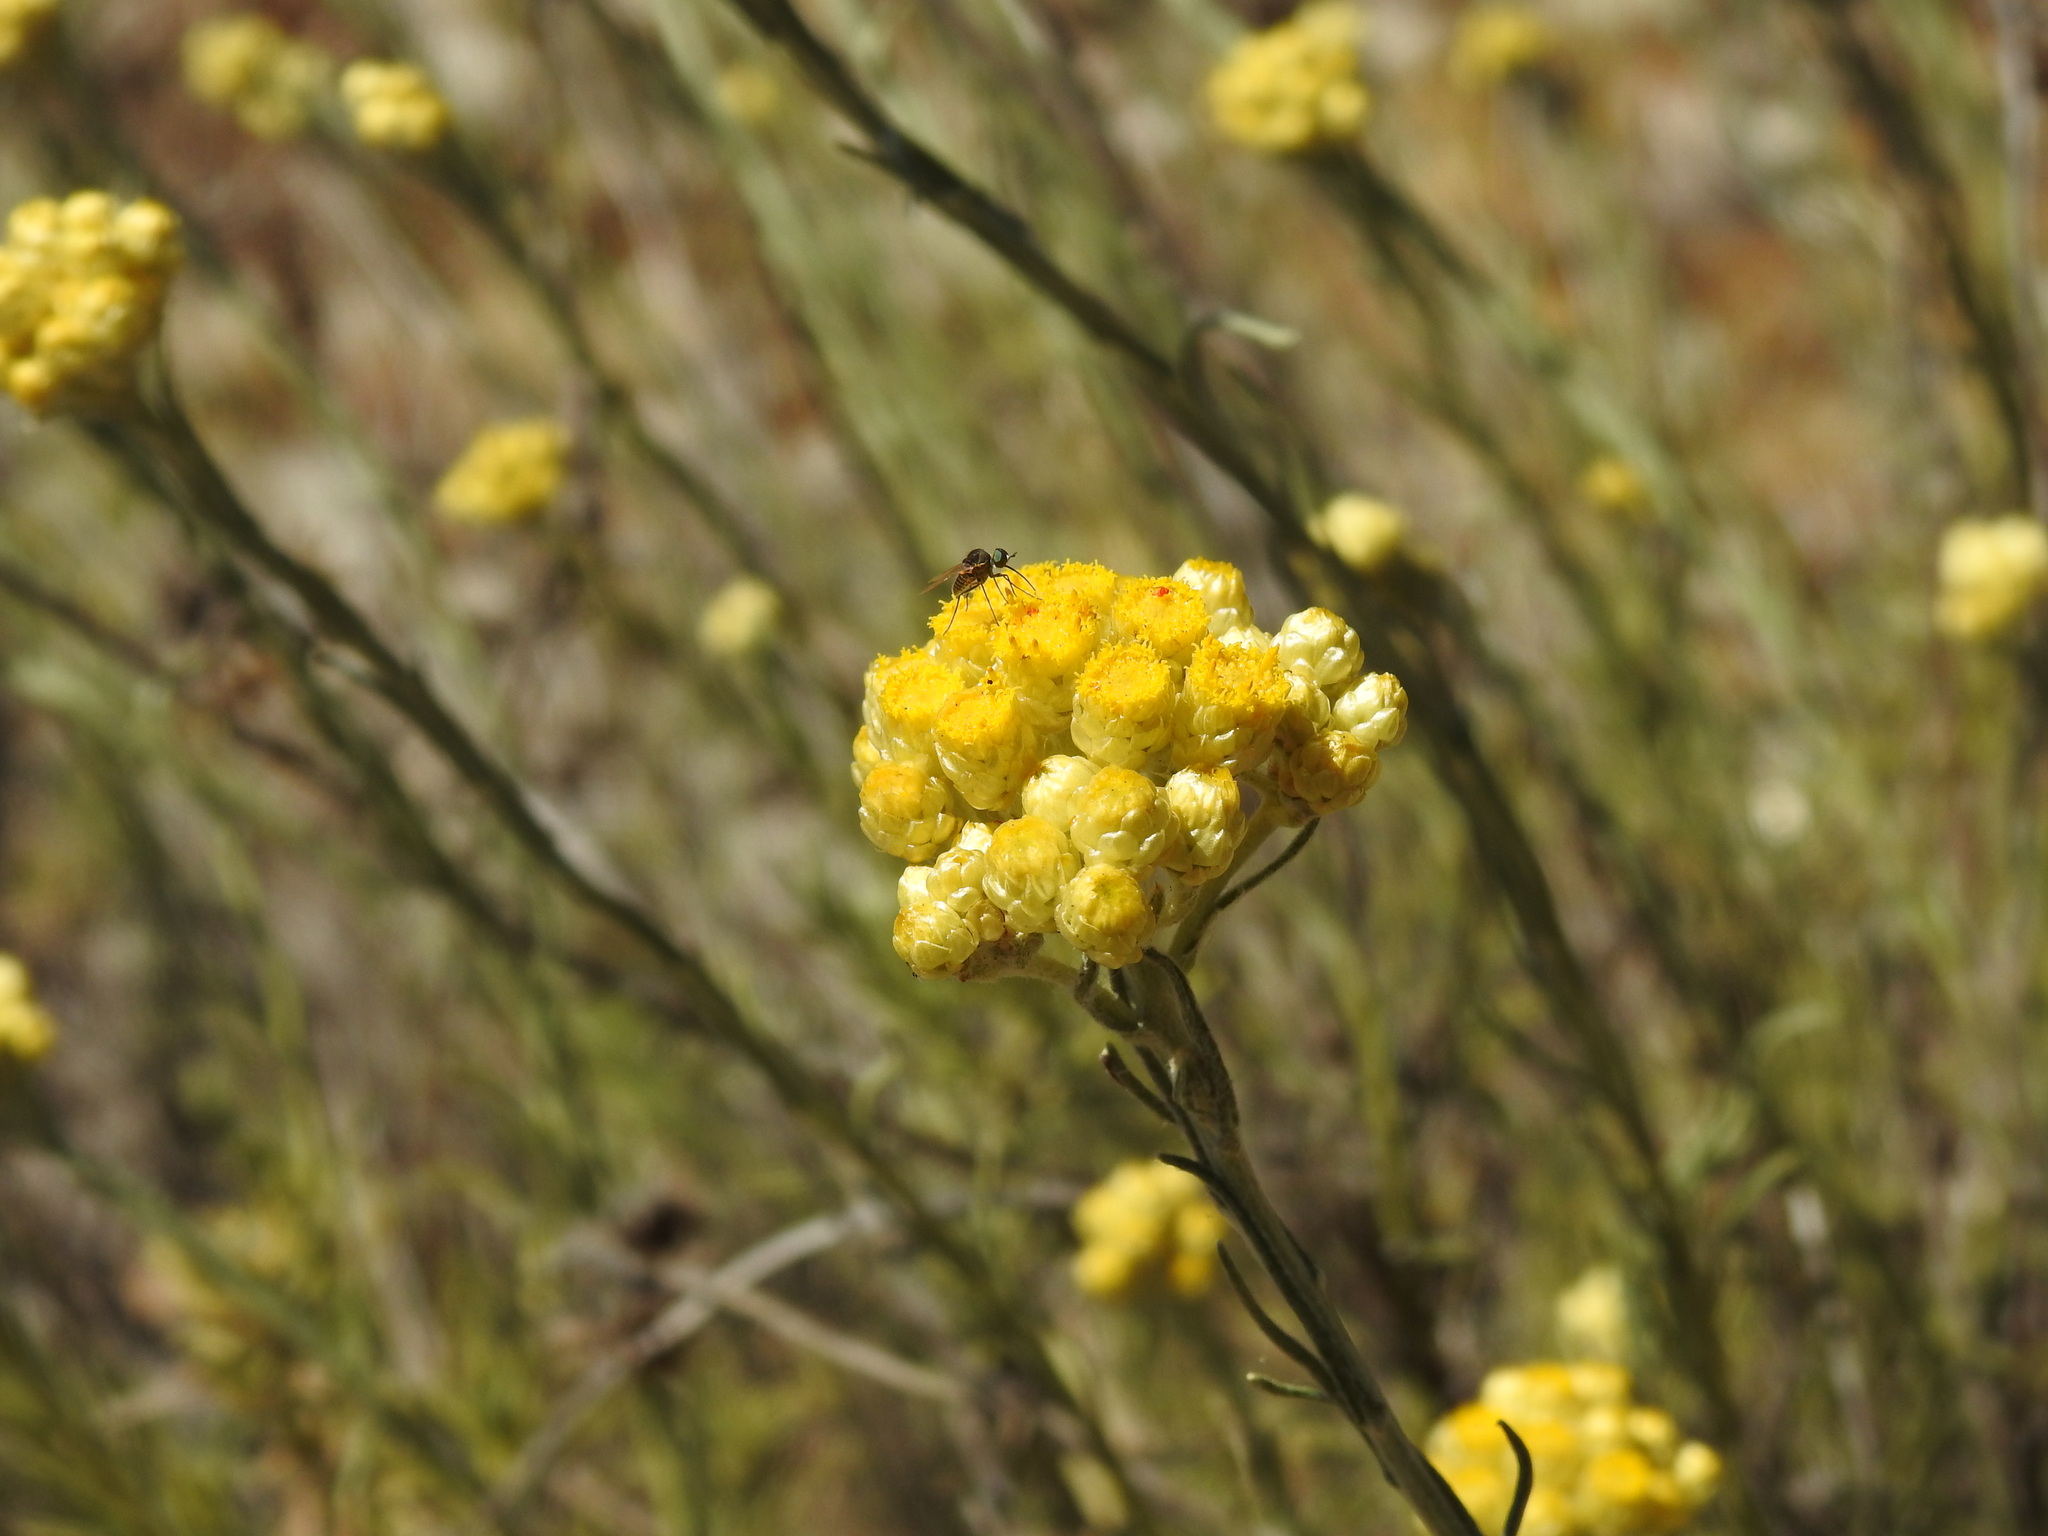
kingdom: Plantae
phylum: Tracheophyta
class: Magnoliopsida
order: Asterales
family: Asteraceae
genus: Helichrysum
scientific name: Helichrysum stoechas
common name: Goldilocks
